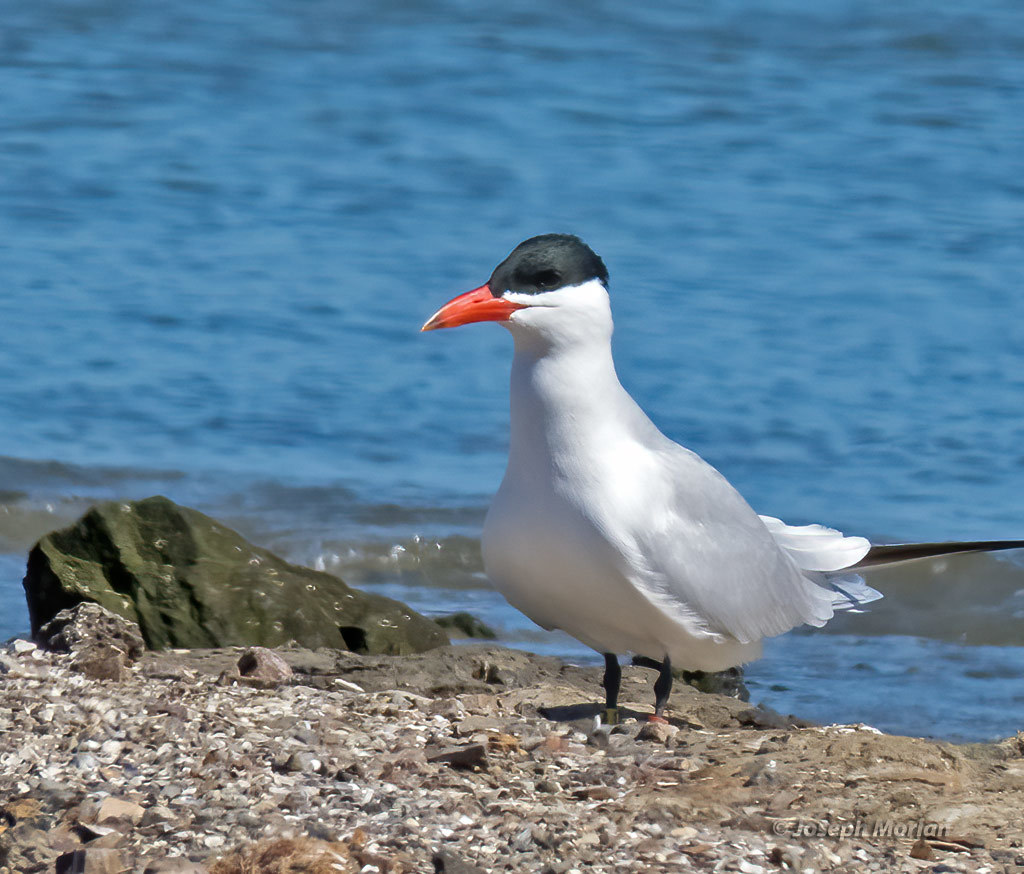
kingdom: Animalia
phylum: Chordata
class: Aves
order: Charadriiformes
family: Laridae
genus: Hydroprogne
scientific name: Hydroprogne caspia
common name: Caspian tern
